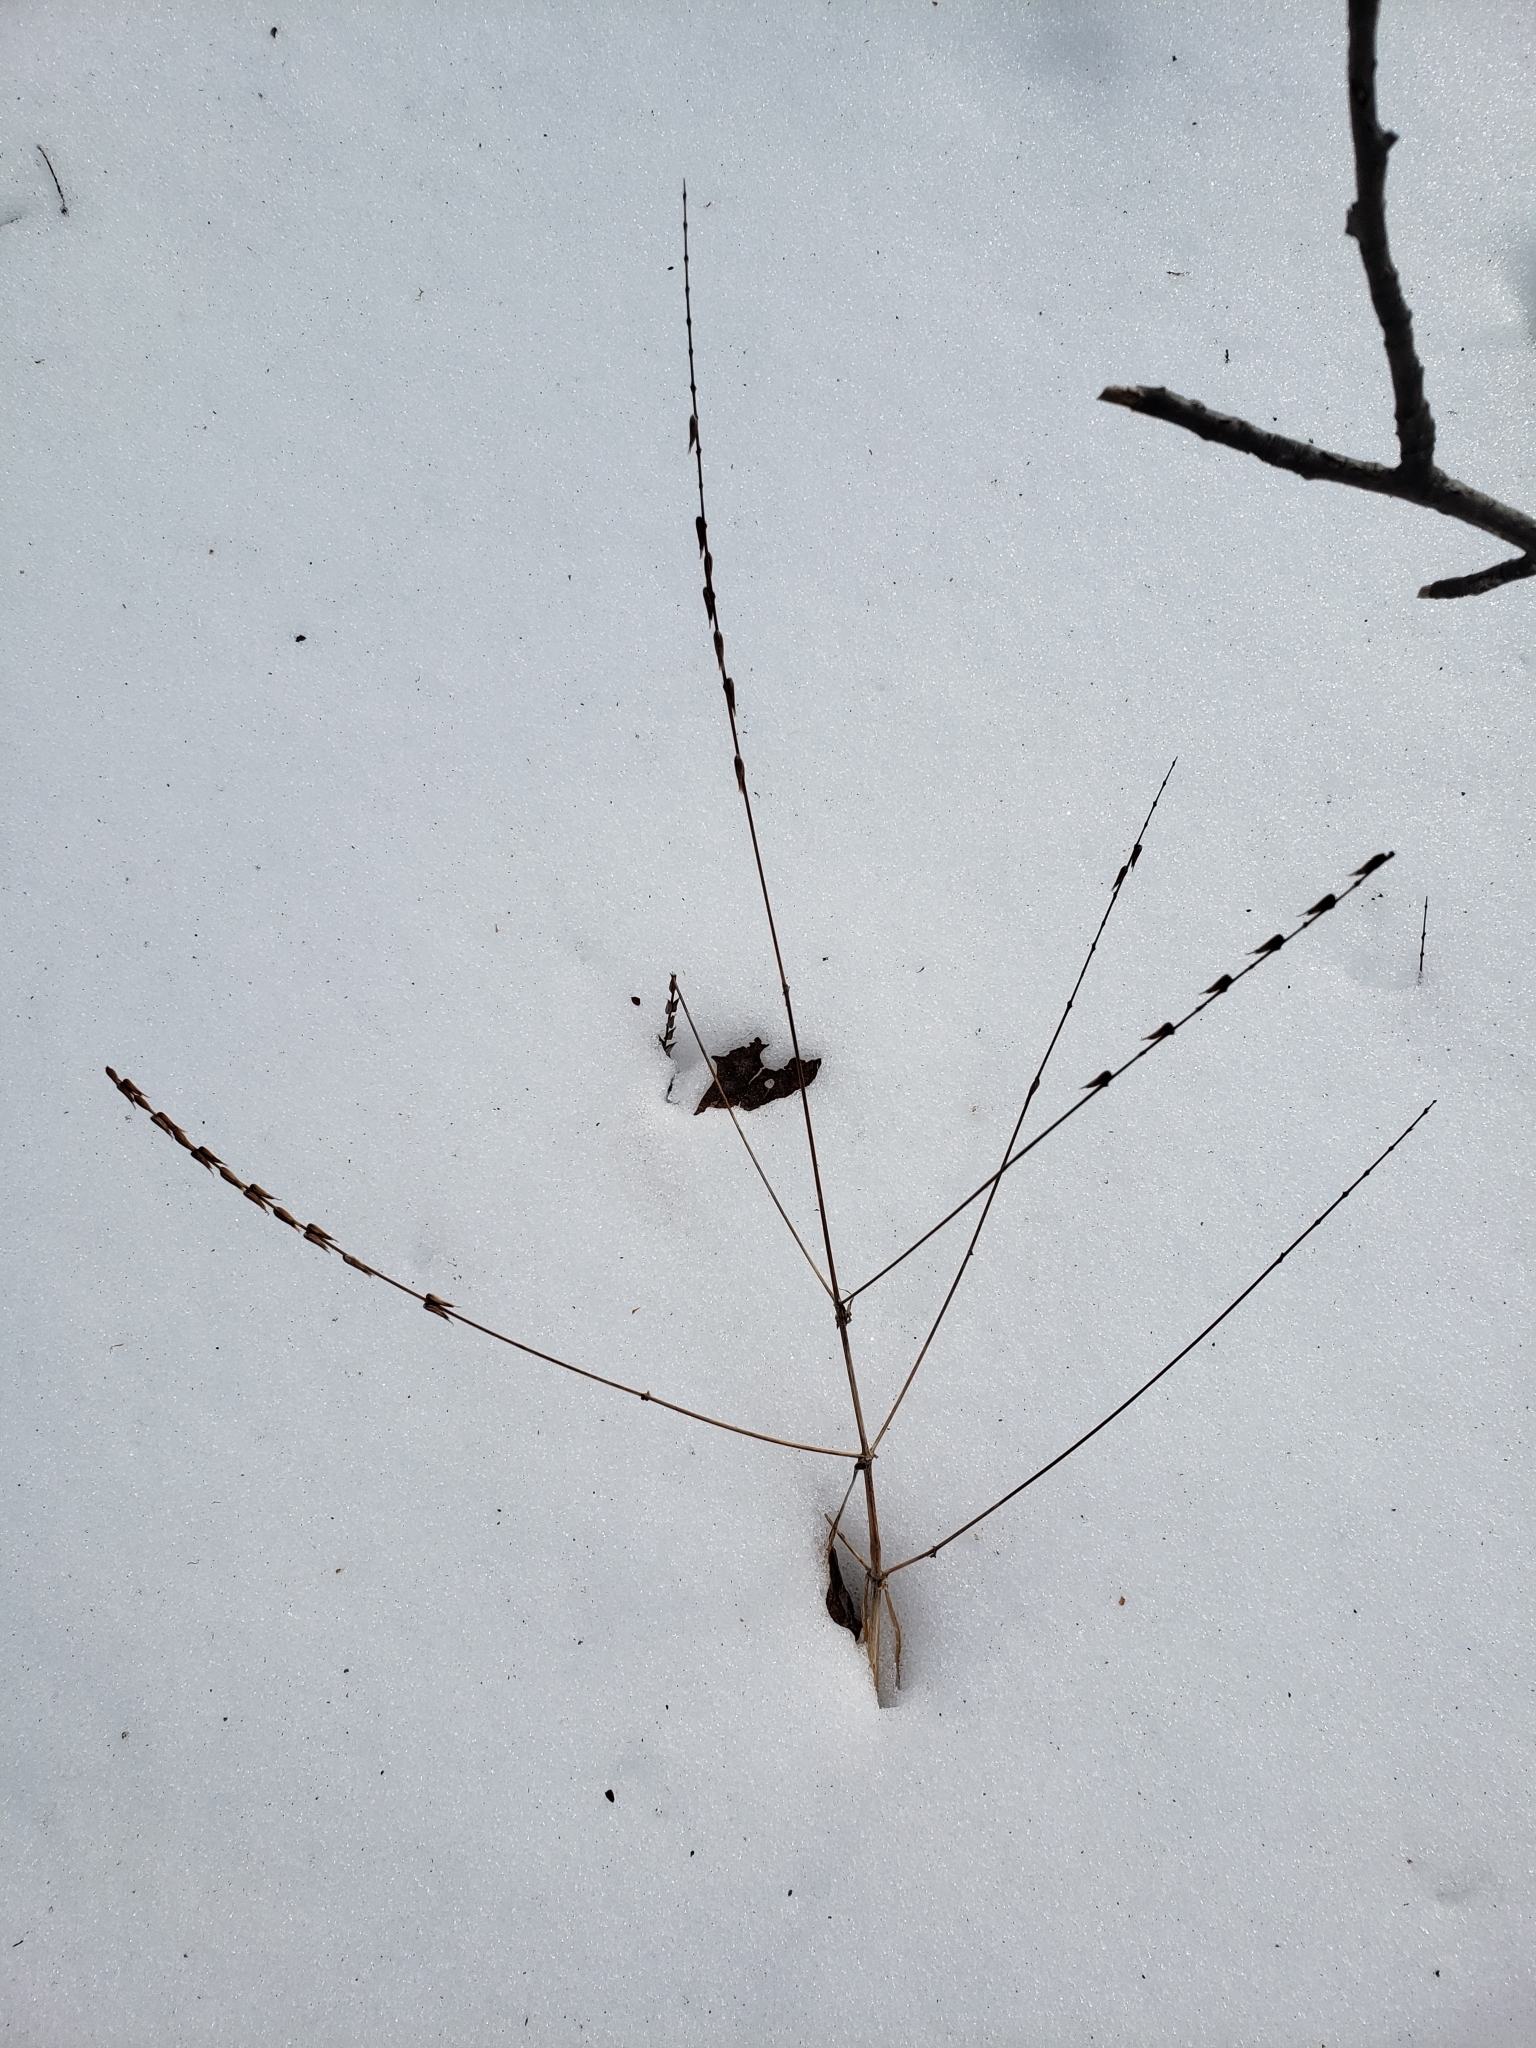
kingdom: Plantae
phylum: Tracheophyta
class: Magnoliopsida
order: Lamiales
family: Phrymaceae
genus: Phryma
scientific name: Phryma leptostachya
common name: American lopseed
